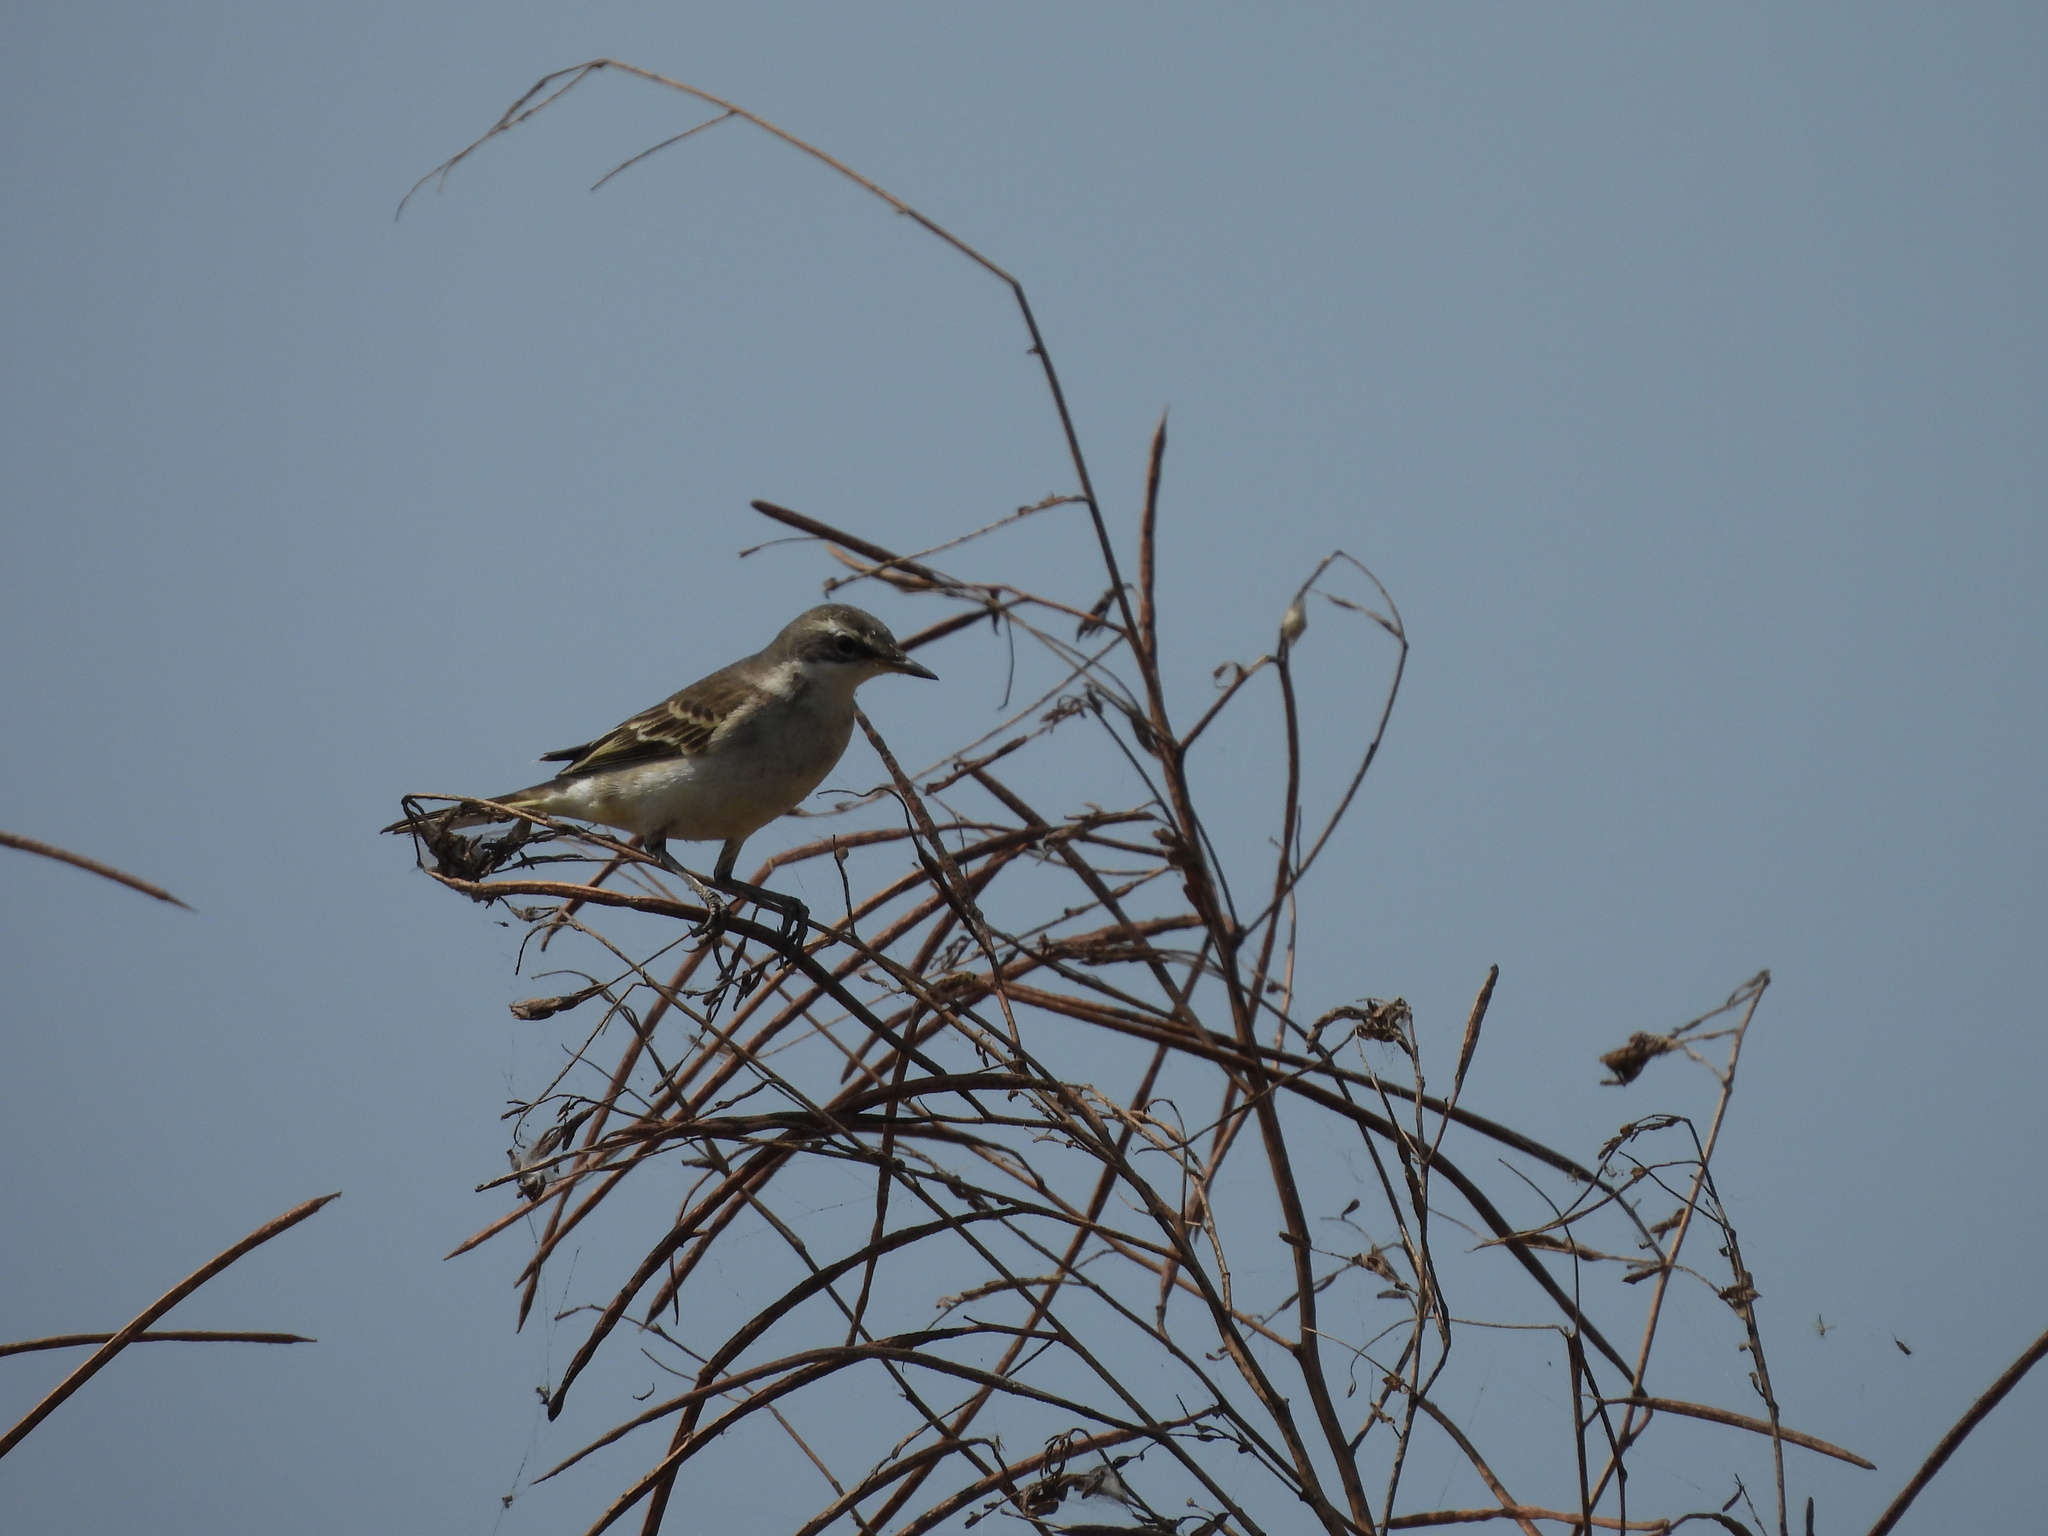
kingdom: Animalia
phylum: Chordata
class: Aves
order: Passeriformes
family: Motacillidae
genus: Motacilla
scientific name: Motacilla tschutschensis
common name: Eastern yellow wagtail
